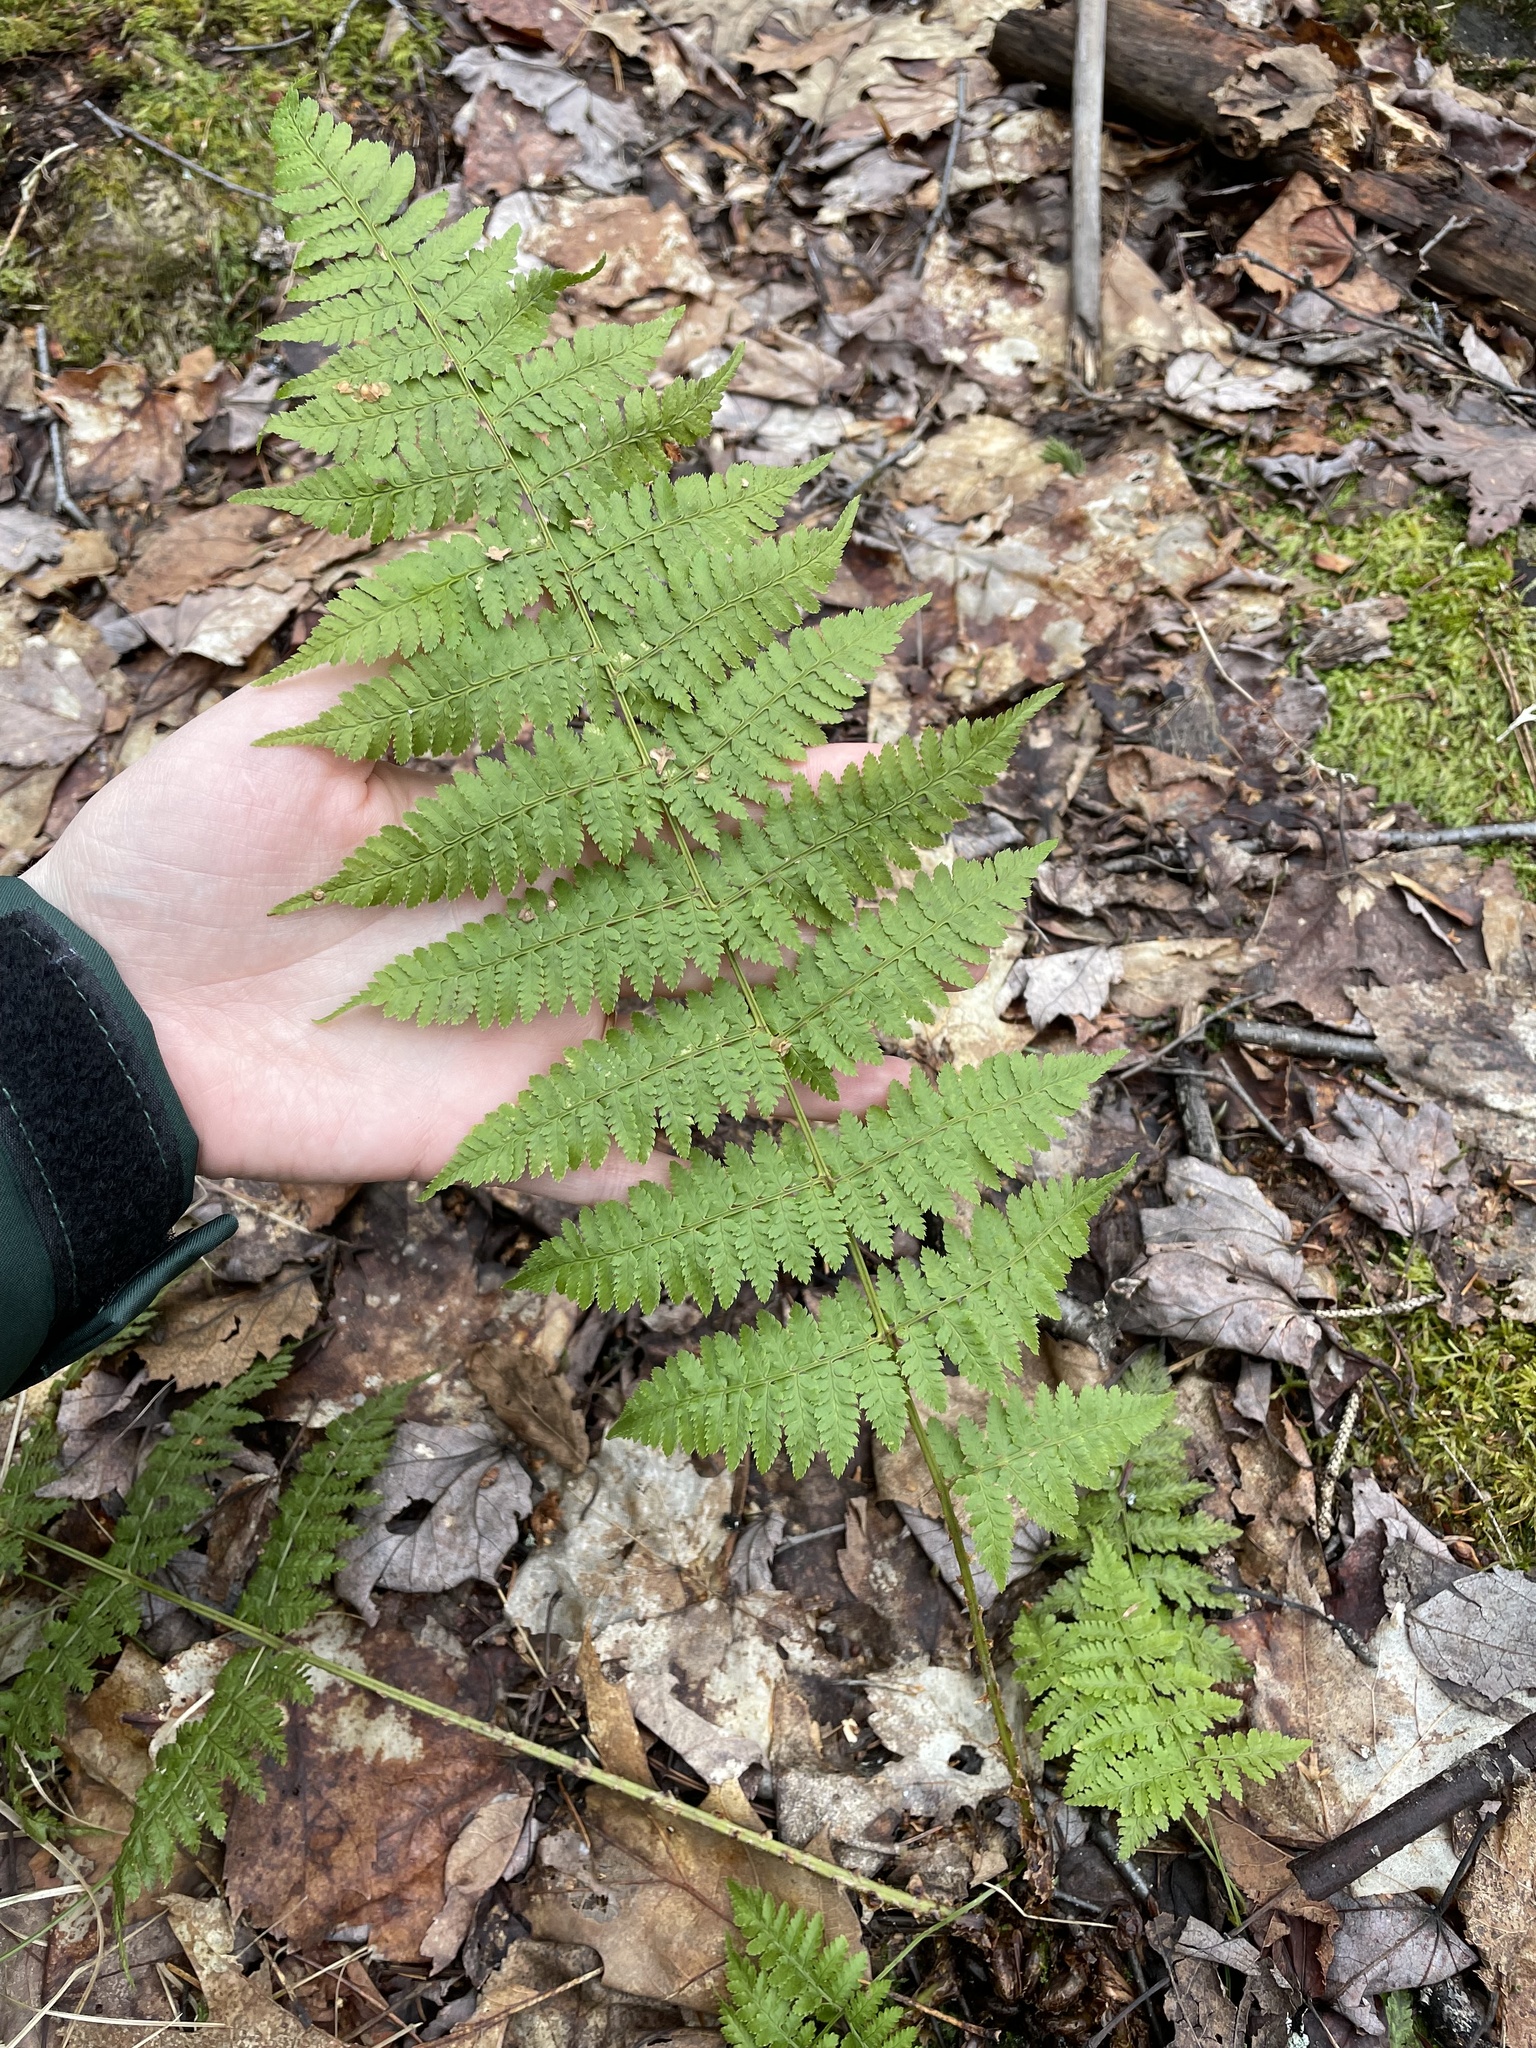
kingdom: Plantae
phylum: Tracheophyta
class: Polypodiopsida
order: Polypodiales
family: Dryopteridaceae
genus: Dryopteris
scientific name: Dryopteris intermedia
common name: Evergreen wood fern
